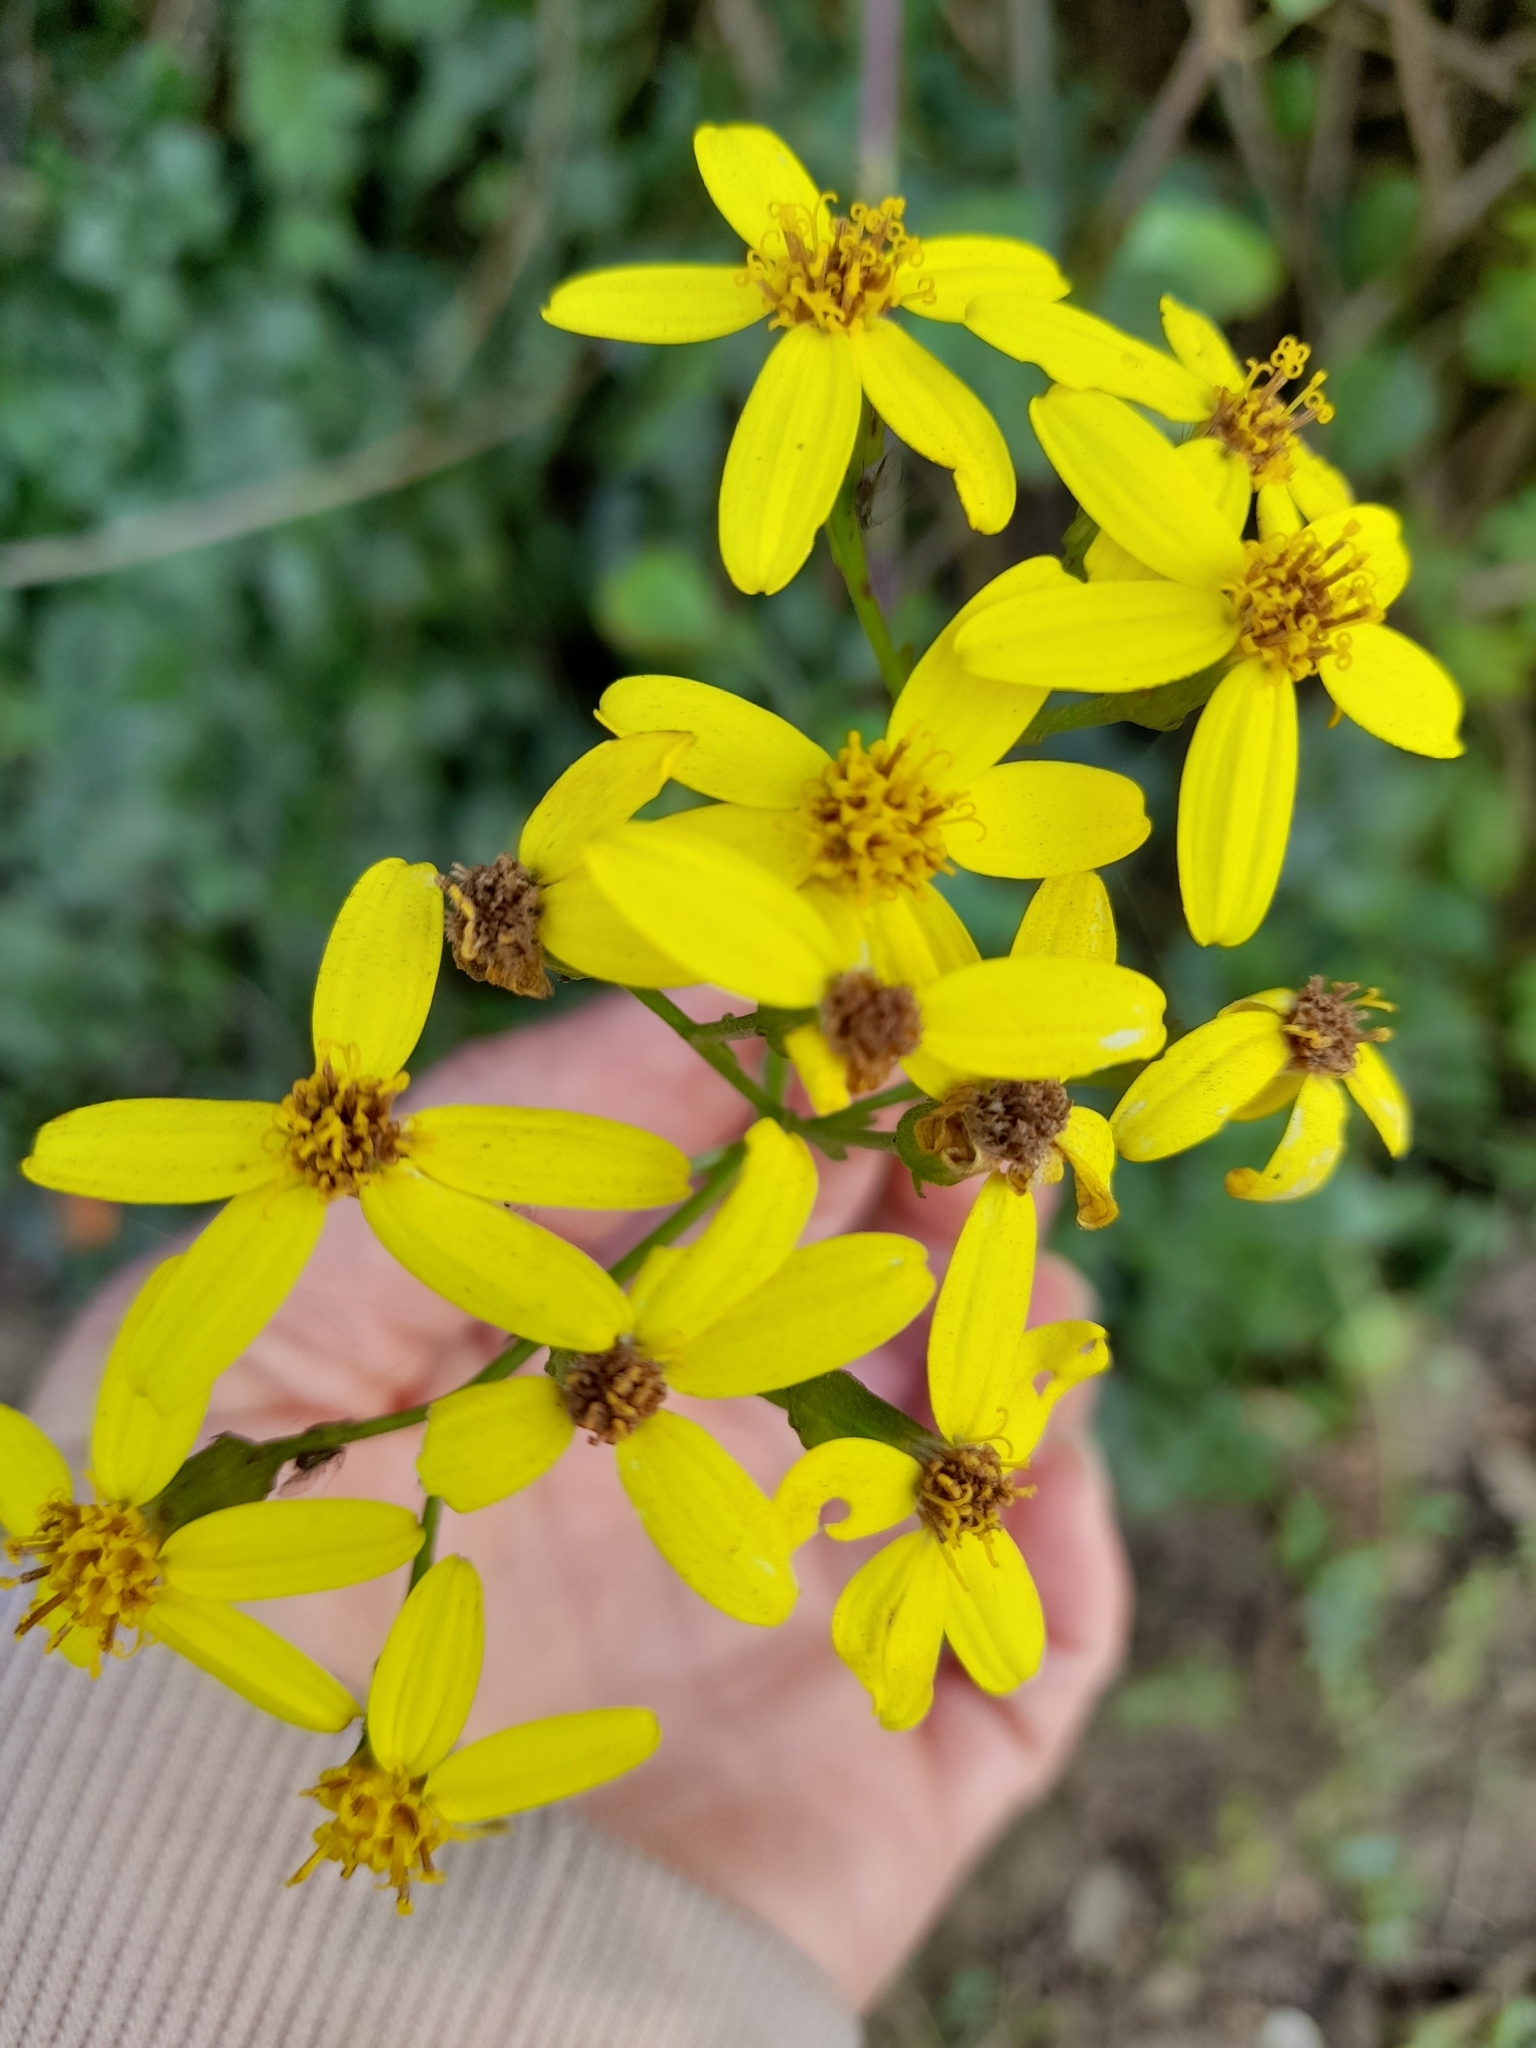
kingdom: Plantae
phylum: Tracheophyta
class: Magnoliopsida
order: Asterales
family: Asteraceae
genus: Senecio
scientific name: Senecio angulatus
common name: Climbing groundsel
